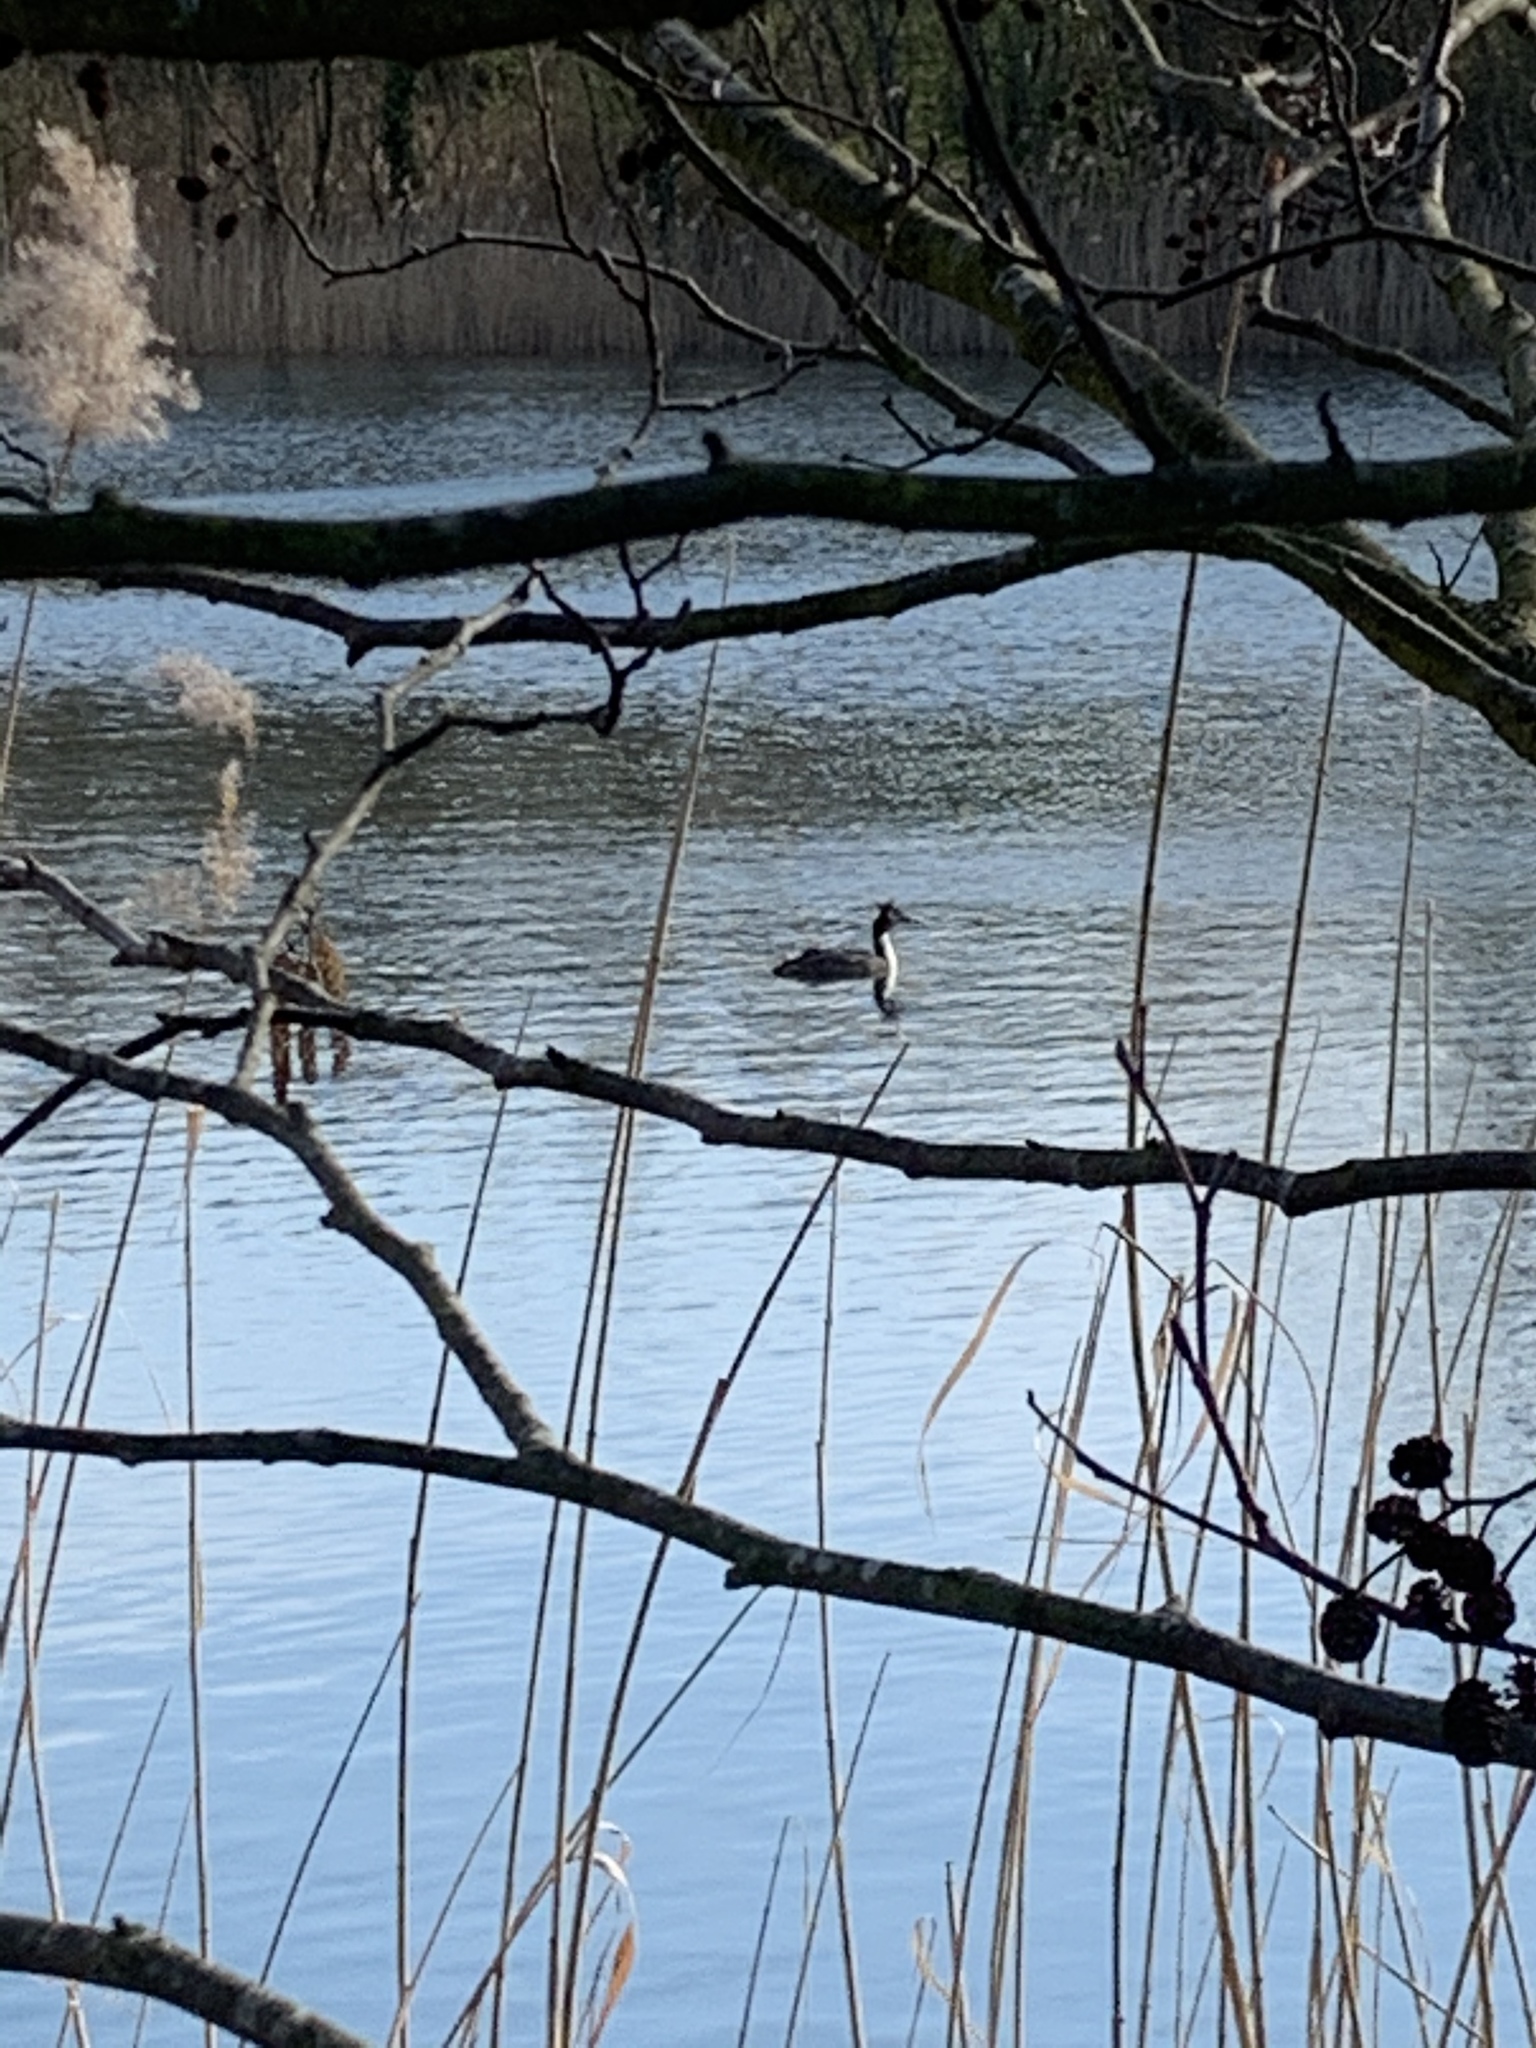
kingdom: Animalia
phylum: Chordata
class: Aves
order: Podicipediformes
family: Podicipedidae
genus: Podiceps
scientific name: Podiceps cristatus
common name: Great crested grebe
